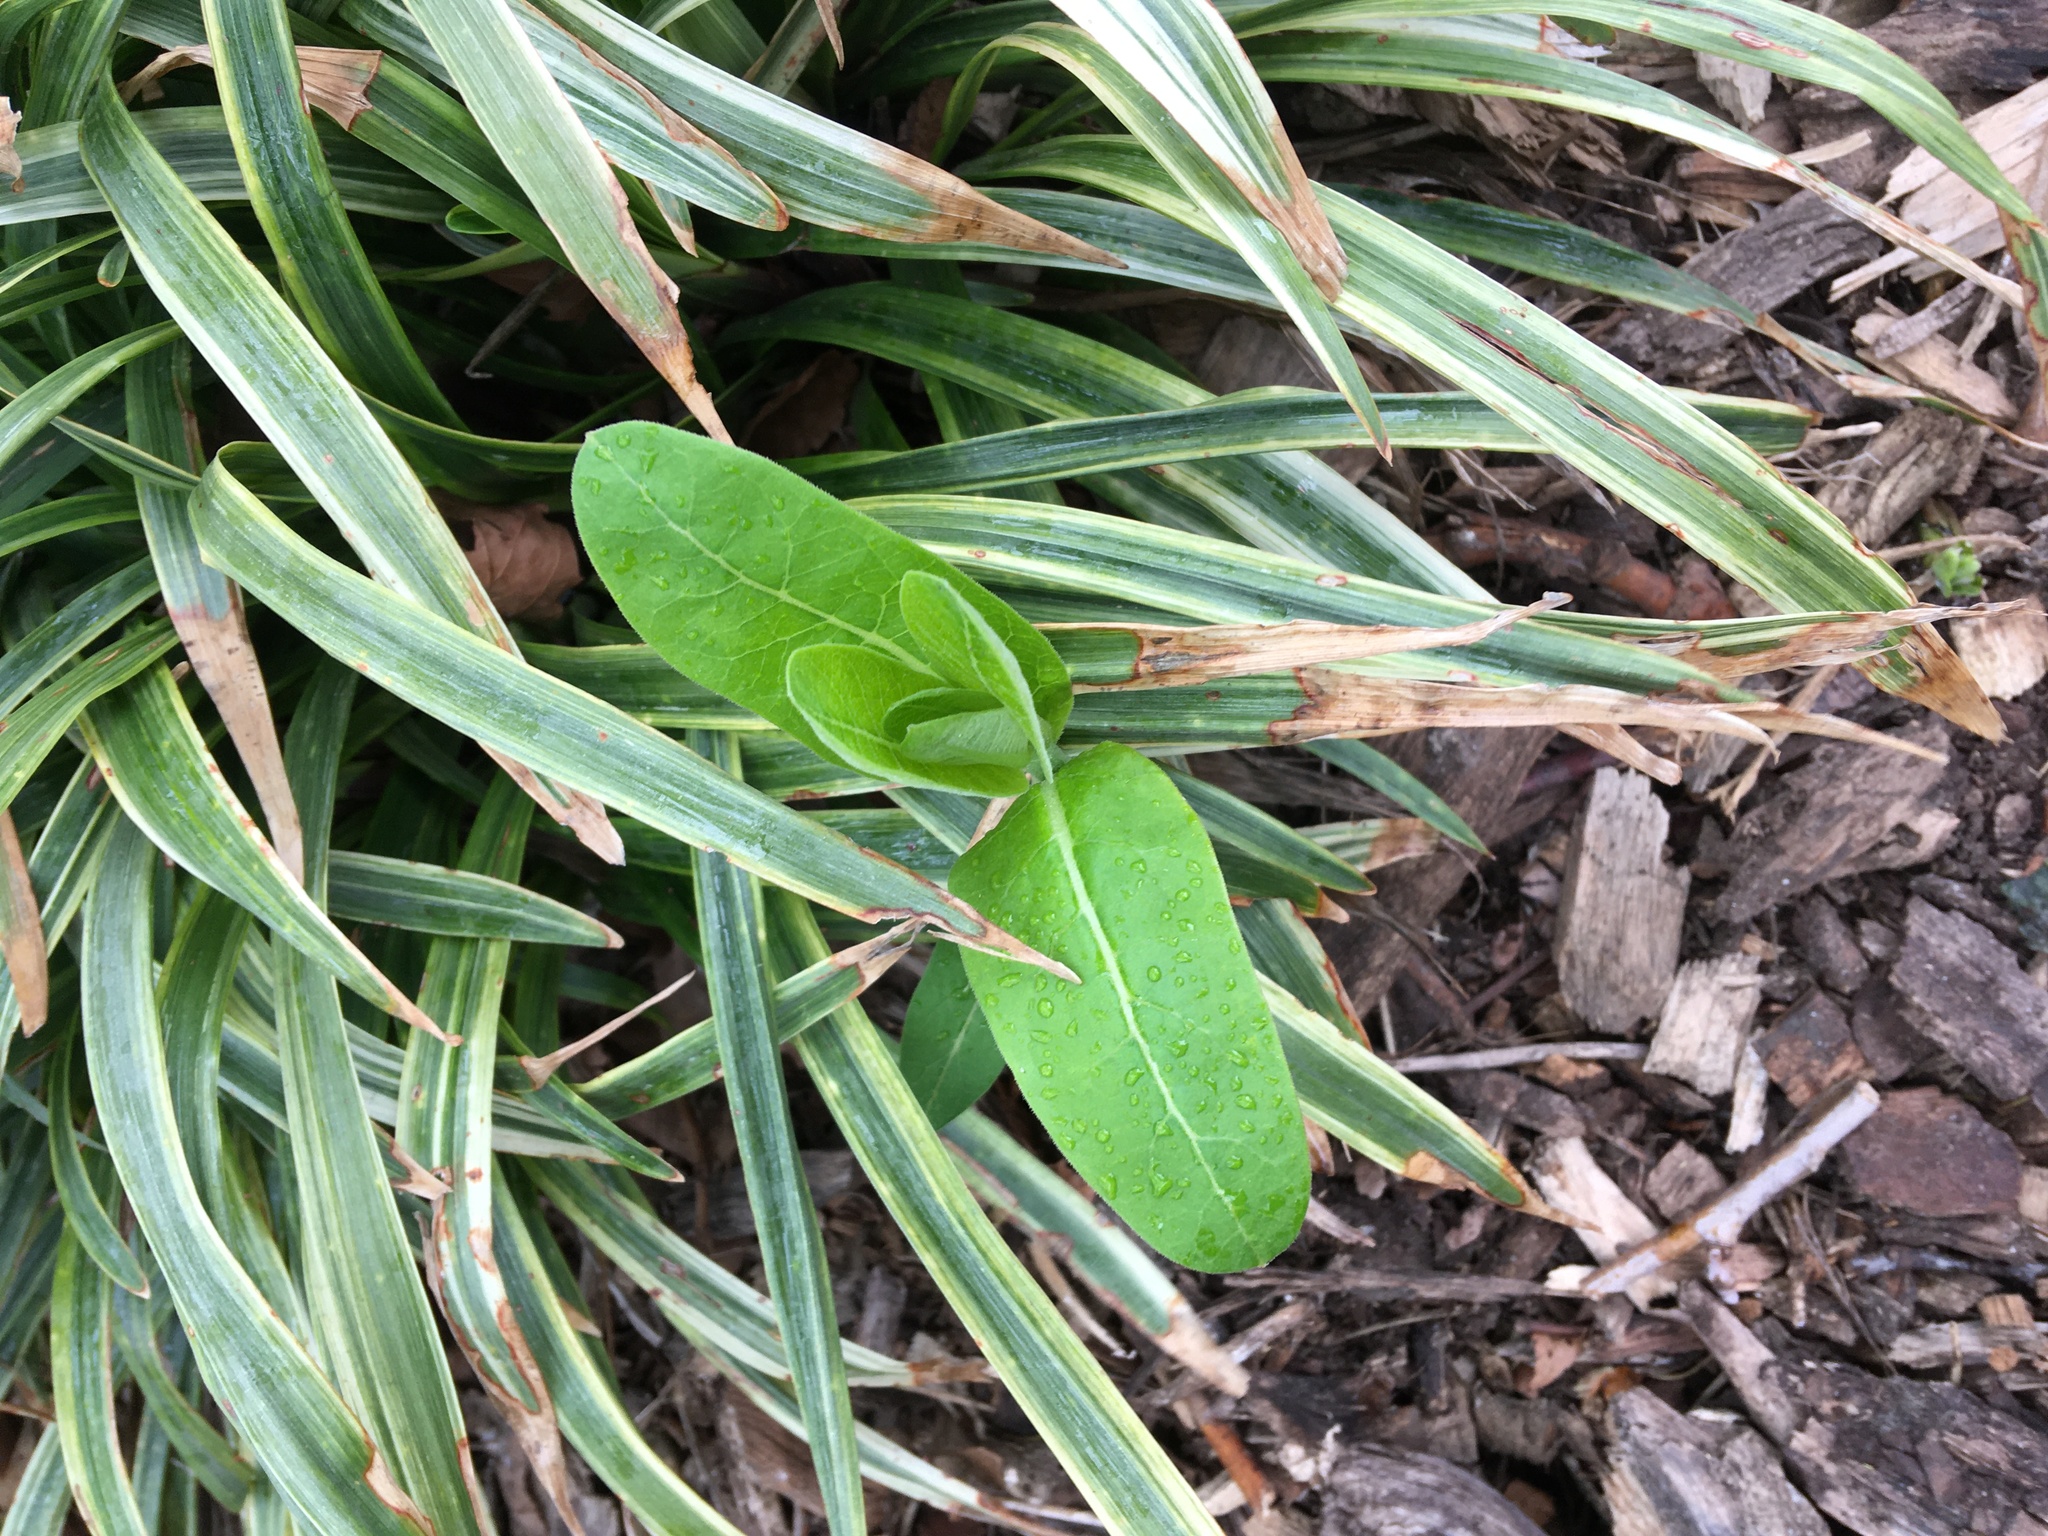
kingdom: Plantae
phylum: Tracheophyta
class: Magnoliopsida
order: Gentianales
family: Apocynaceae
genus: Asclepias
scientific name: Asclepias syriaca
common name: Common milkweed
